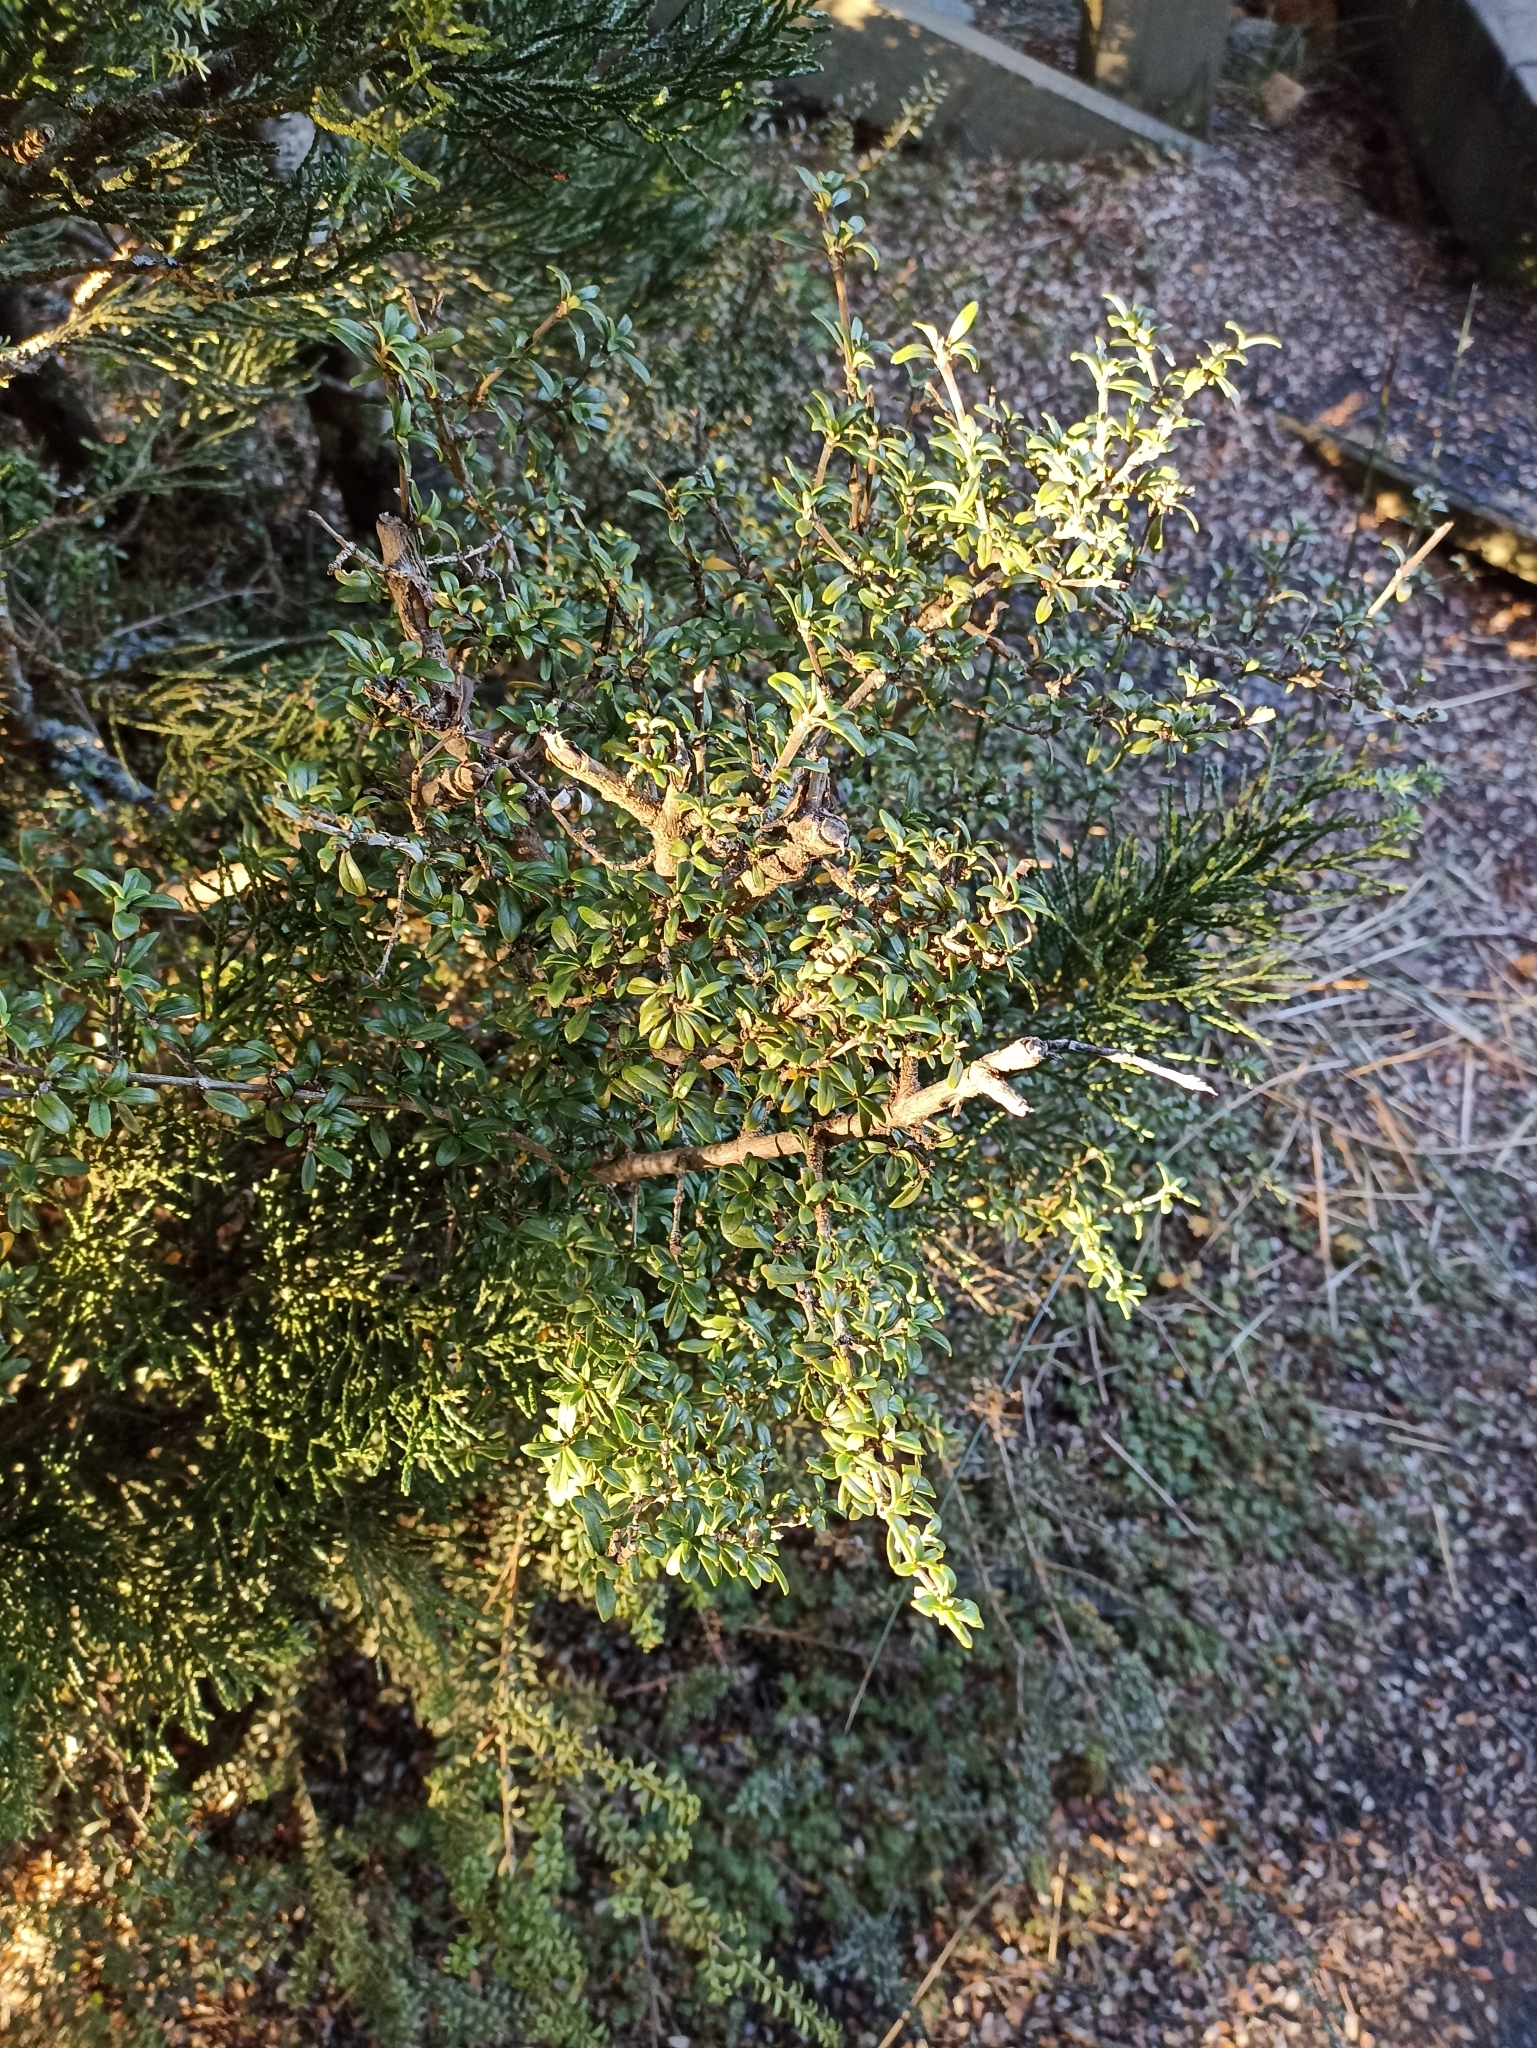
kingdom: Plantae
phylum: Tracheophyta
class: Magnoliopsida
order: Gentianales
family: Rubiaceae
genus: Coprosma
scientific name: Coprosma pseudocuneata
